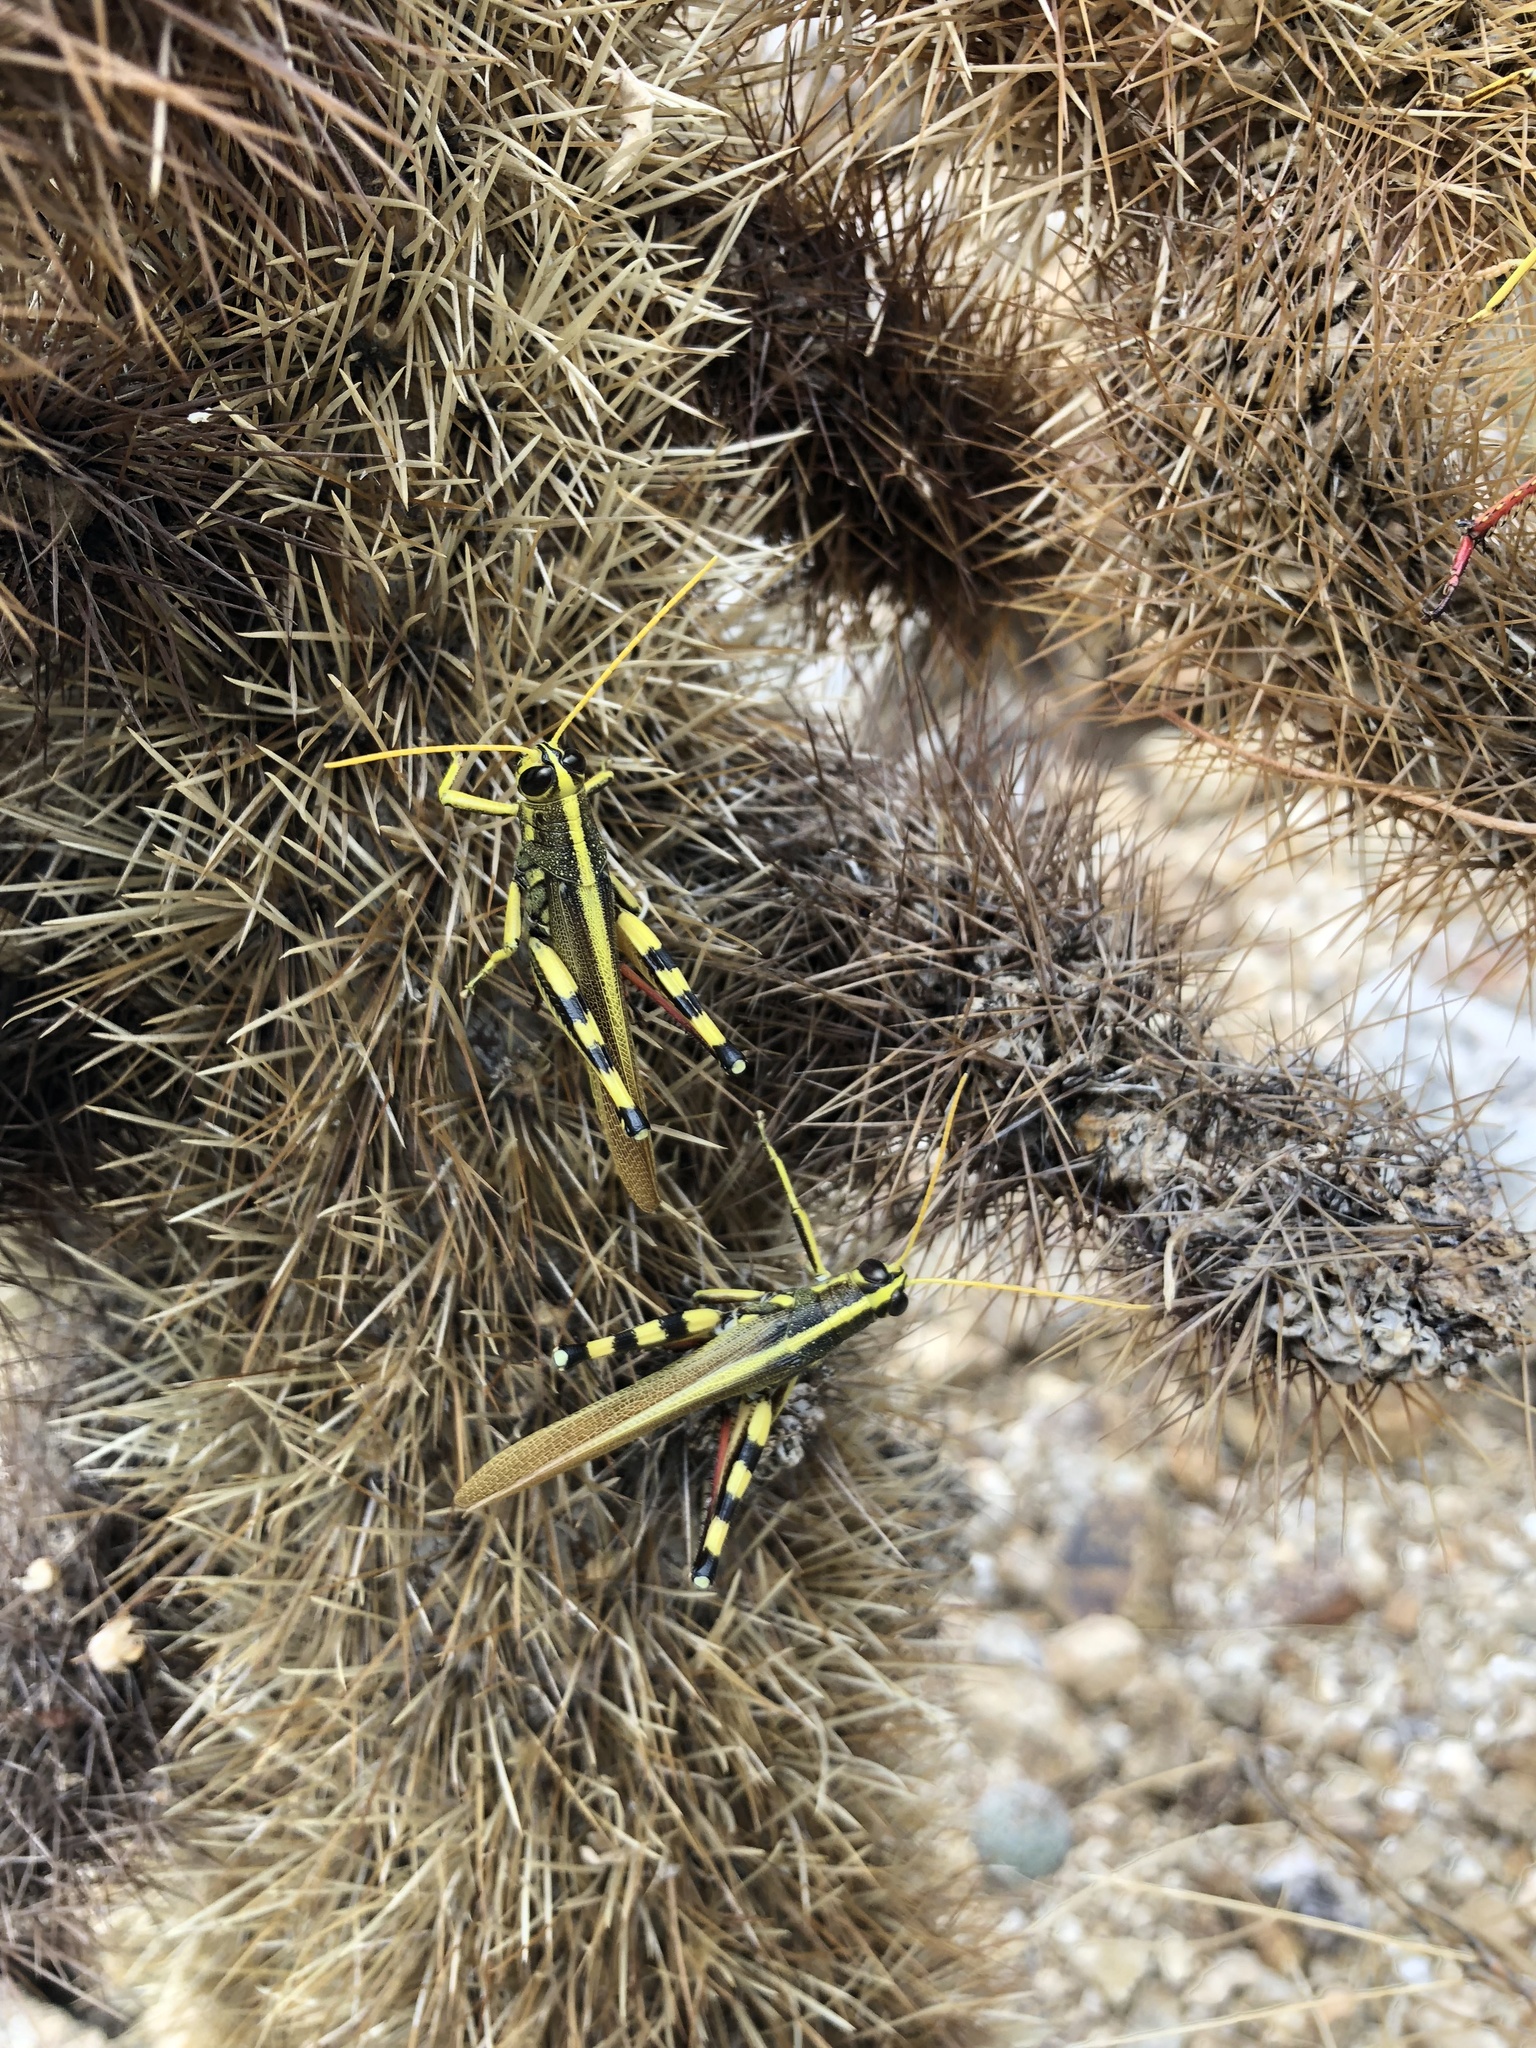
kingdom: Animalia
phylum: Arthropoda
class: Insecta
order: Orthoptera
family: Acrididae
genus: Schistocerca
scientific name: Schistocerca albolineata
